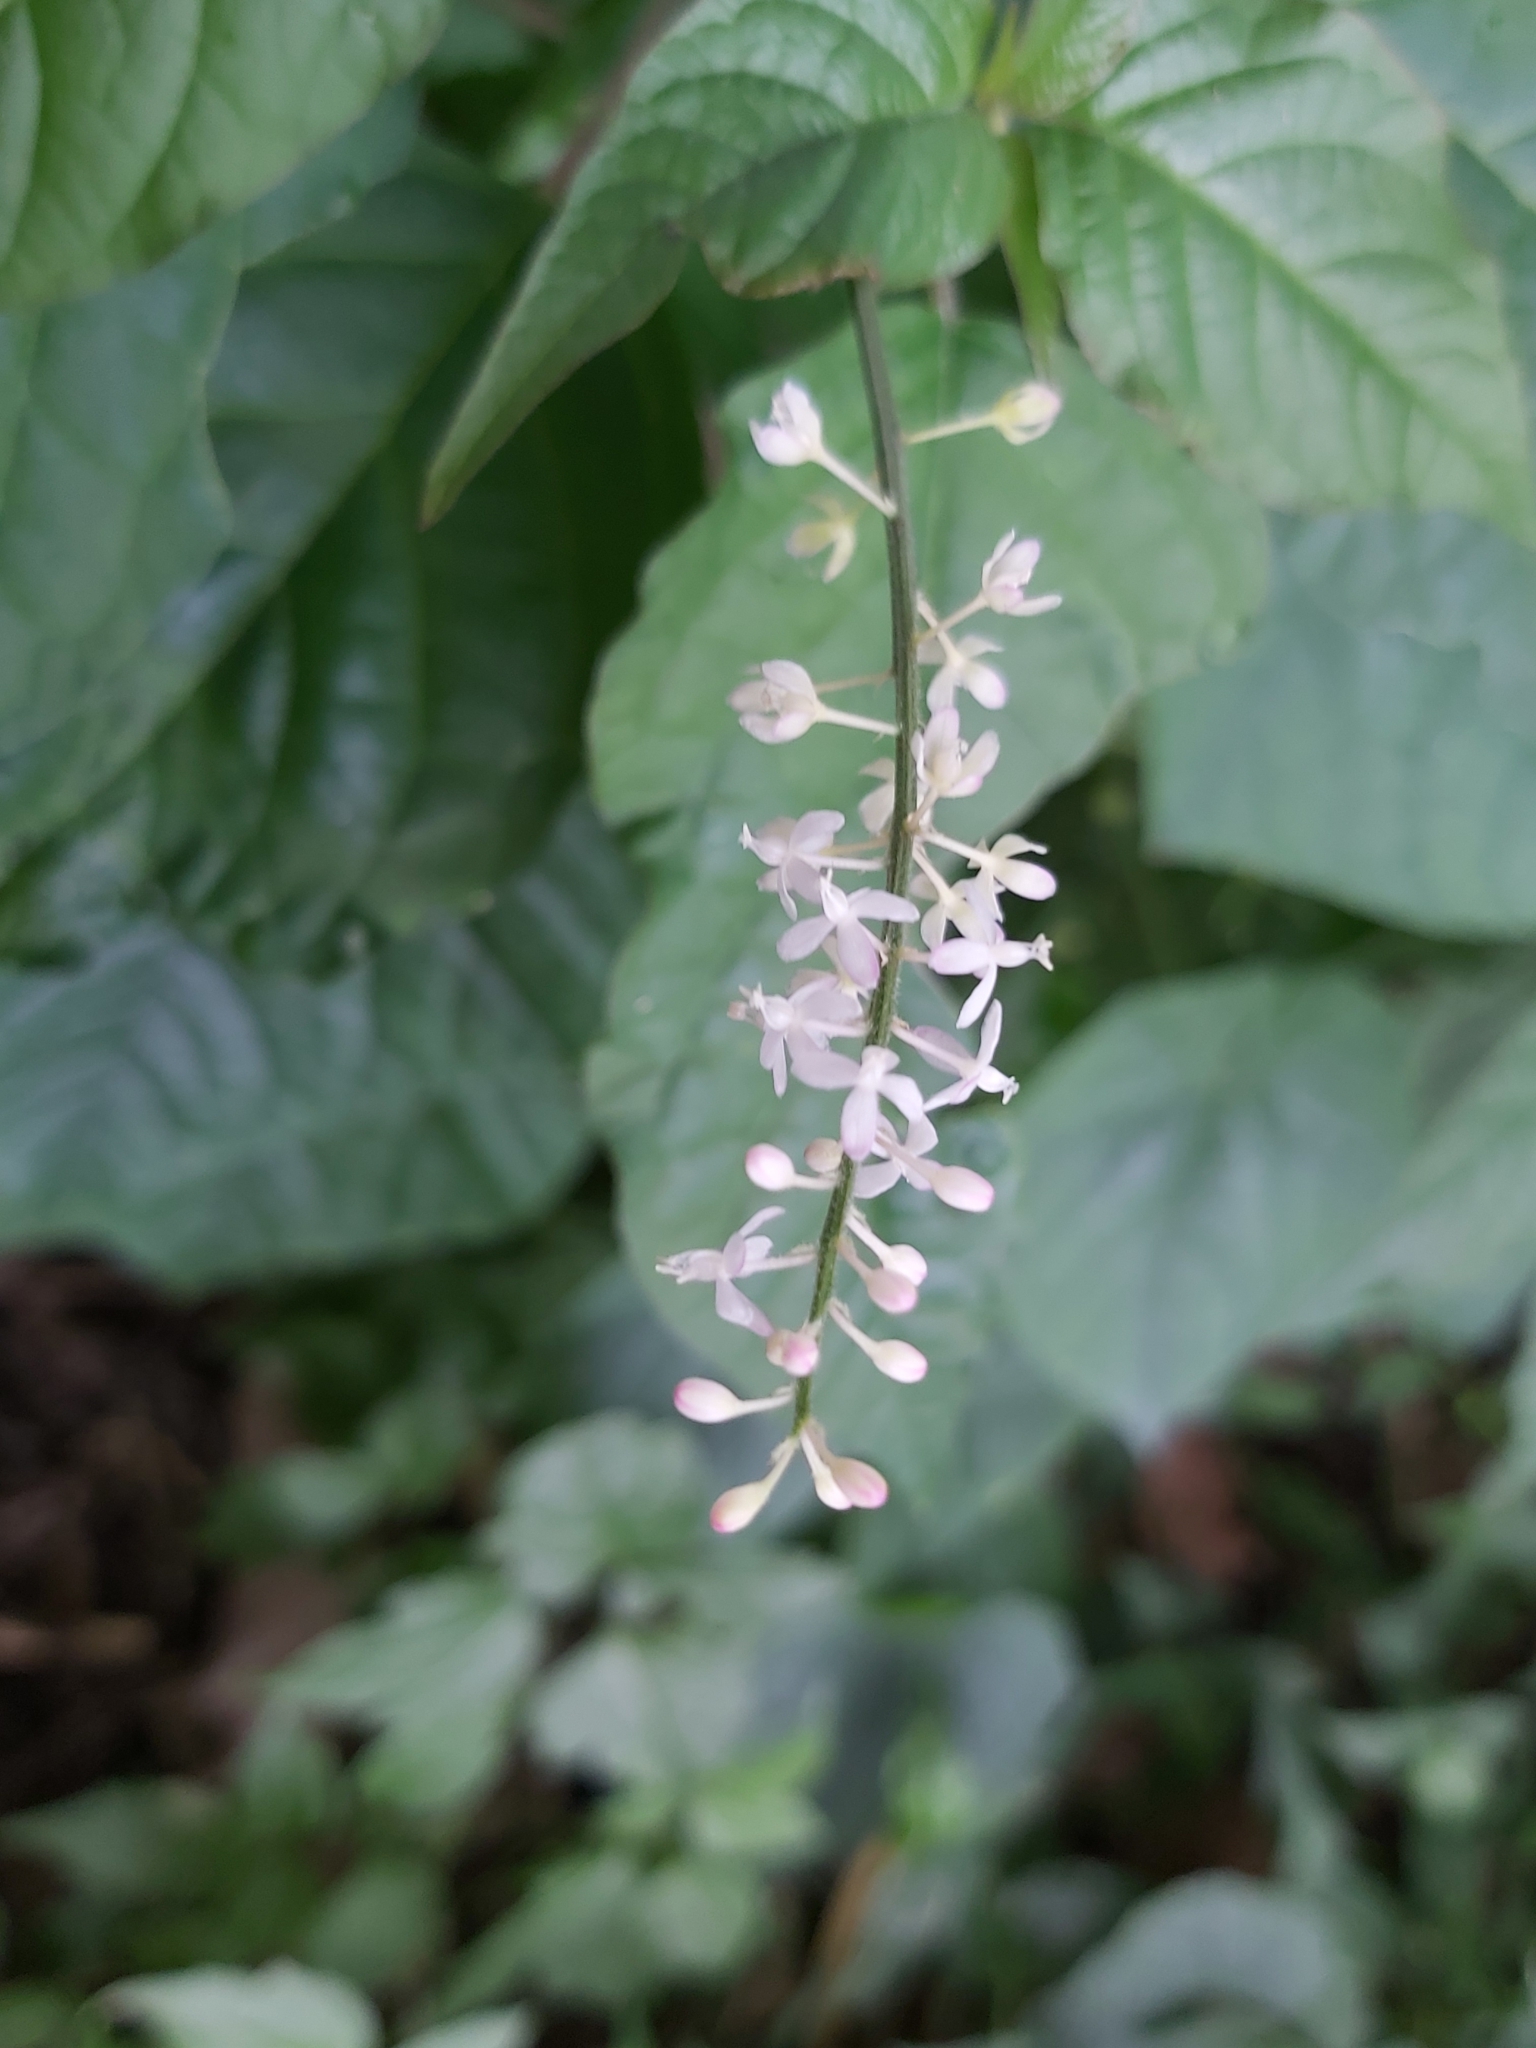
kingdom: Plantae
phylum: Tracheophyta
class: Magnoliopsida
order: Caryophyllales
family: Phytolaccaceae
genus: Rivina
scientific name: Rivina humilis
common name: Rougeplant
